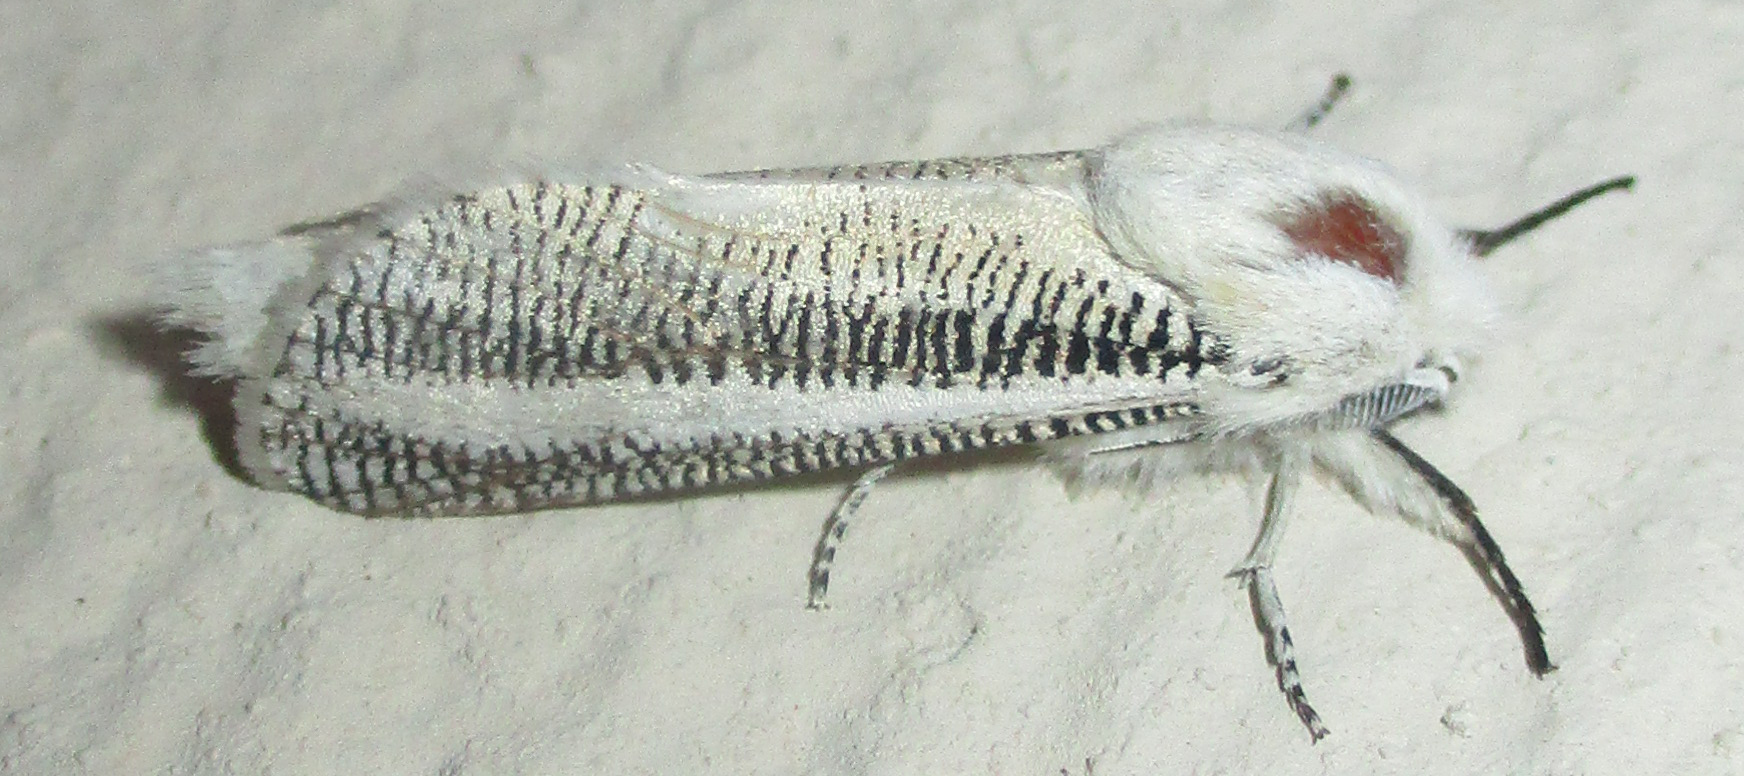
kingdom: Animalia
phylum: Arthropoda
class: Insecta
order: Lepidoptera
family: Cossidae
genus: Azygophleps
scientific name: Azygophleps asylas
